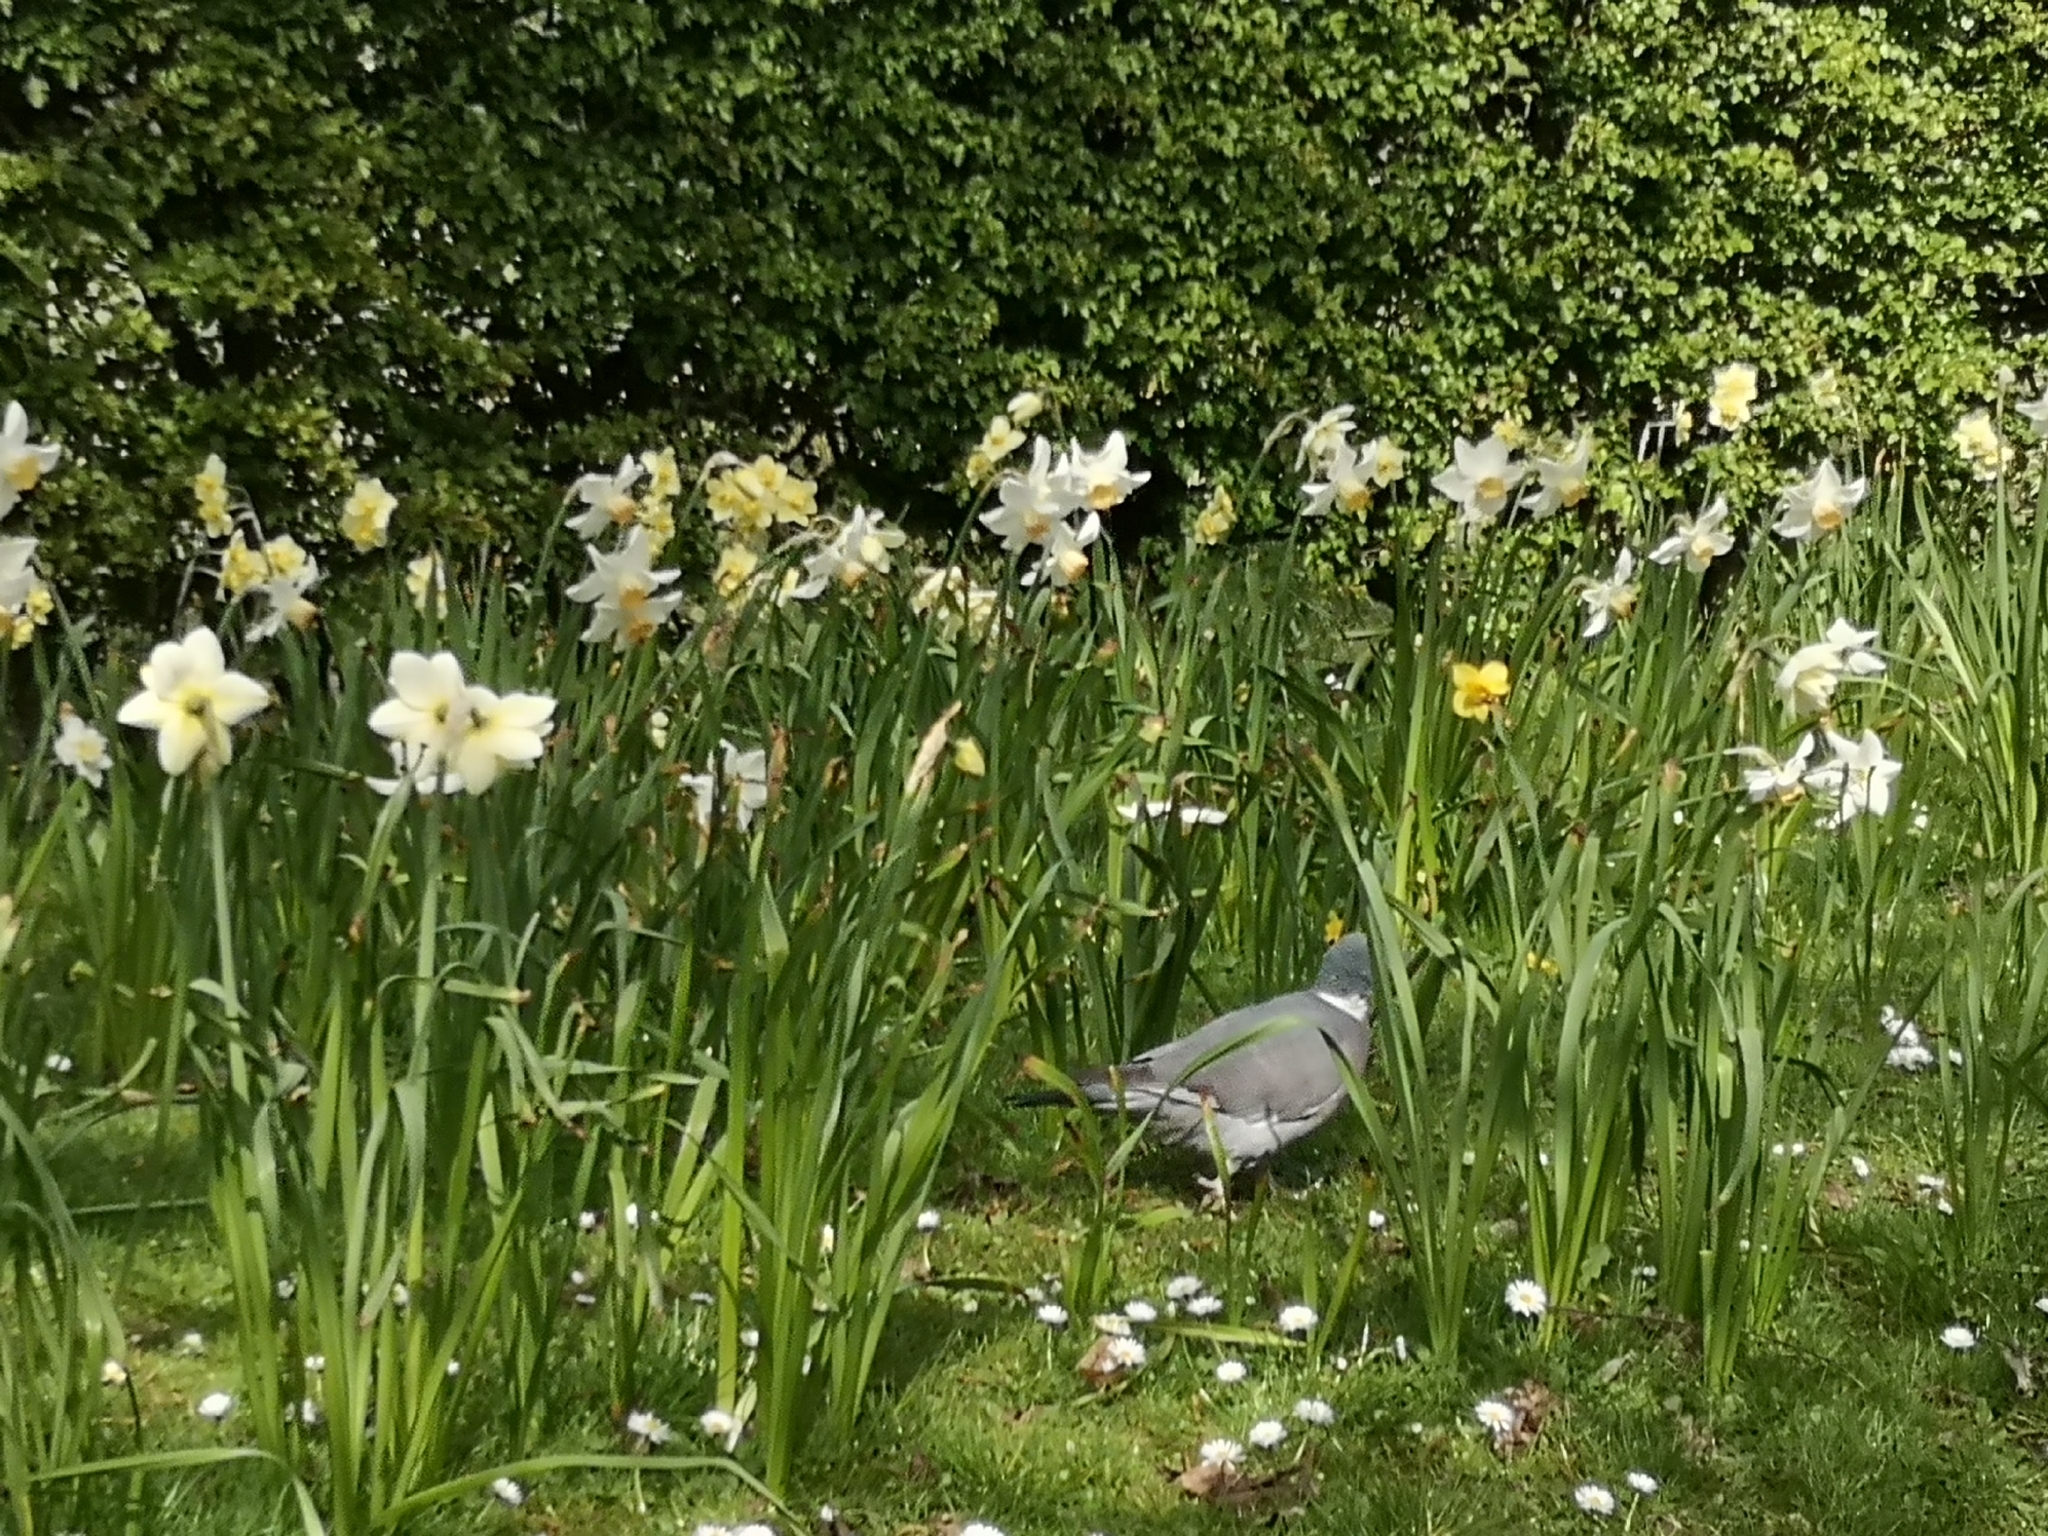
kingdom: Animalia
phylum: Chordata
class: Aves
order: Columbiformes
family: Columbidae
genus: Columba
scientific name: Columba palumbus
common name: Common wood pigeon
